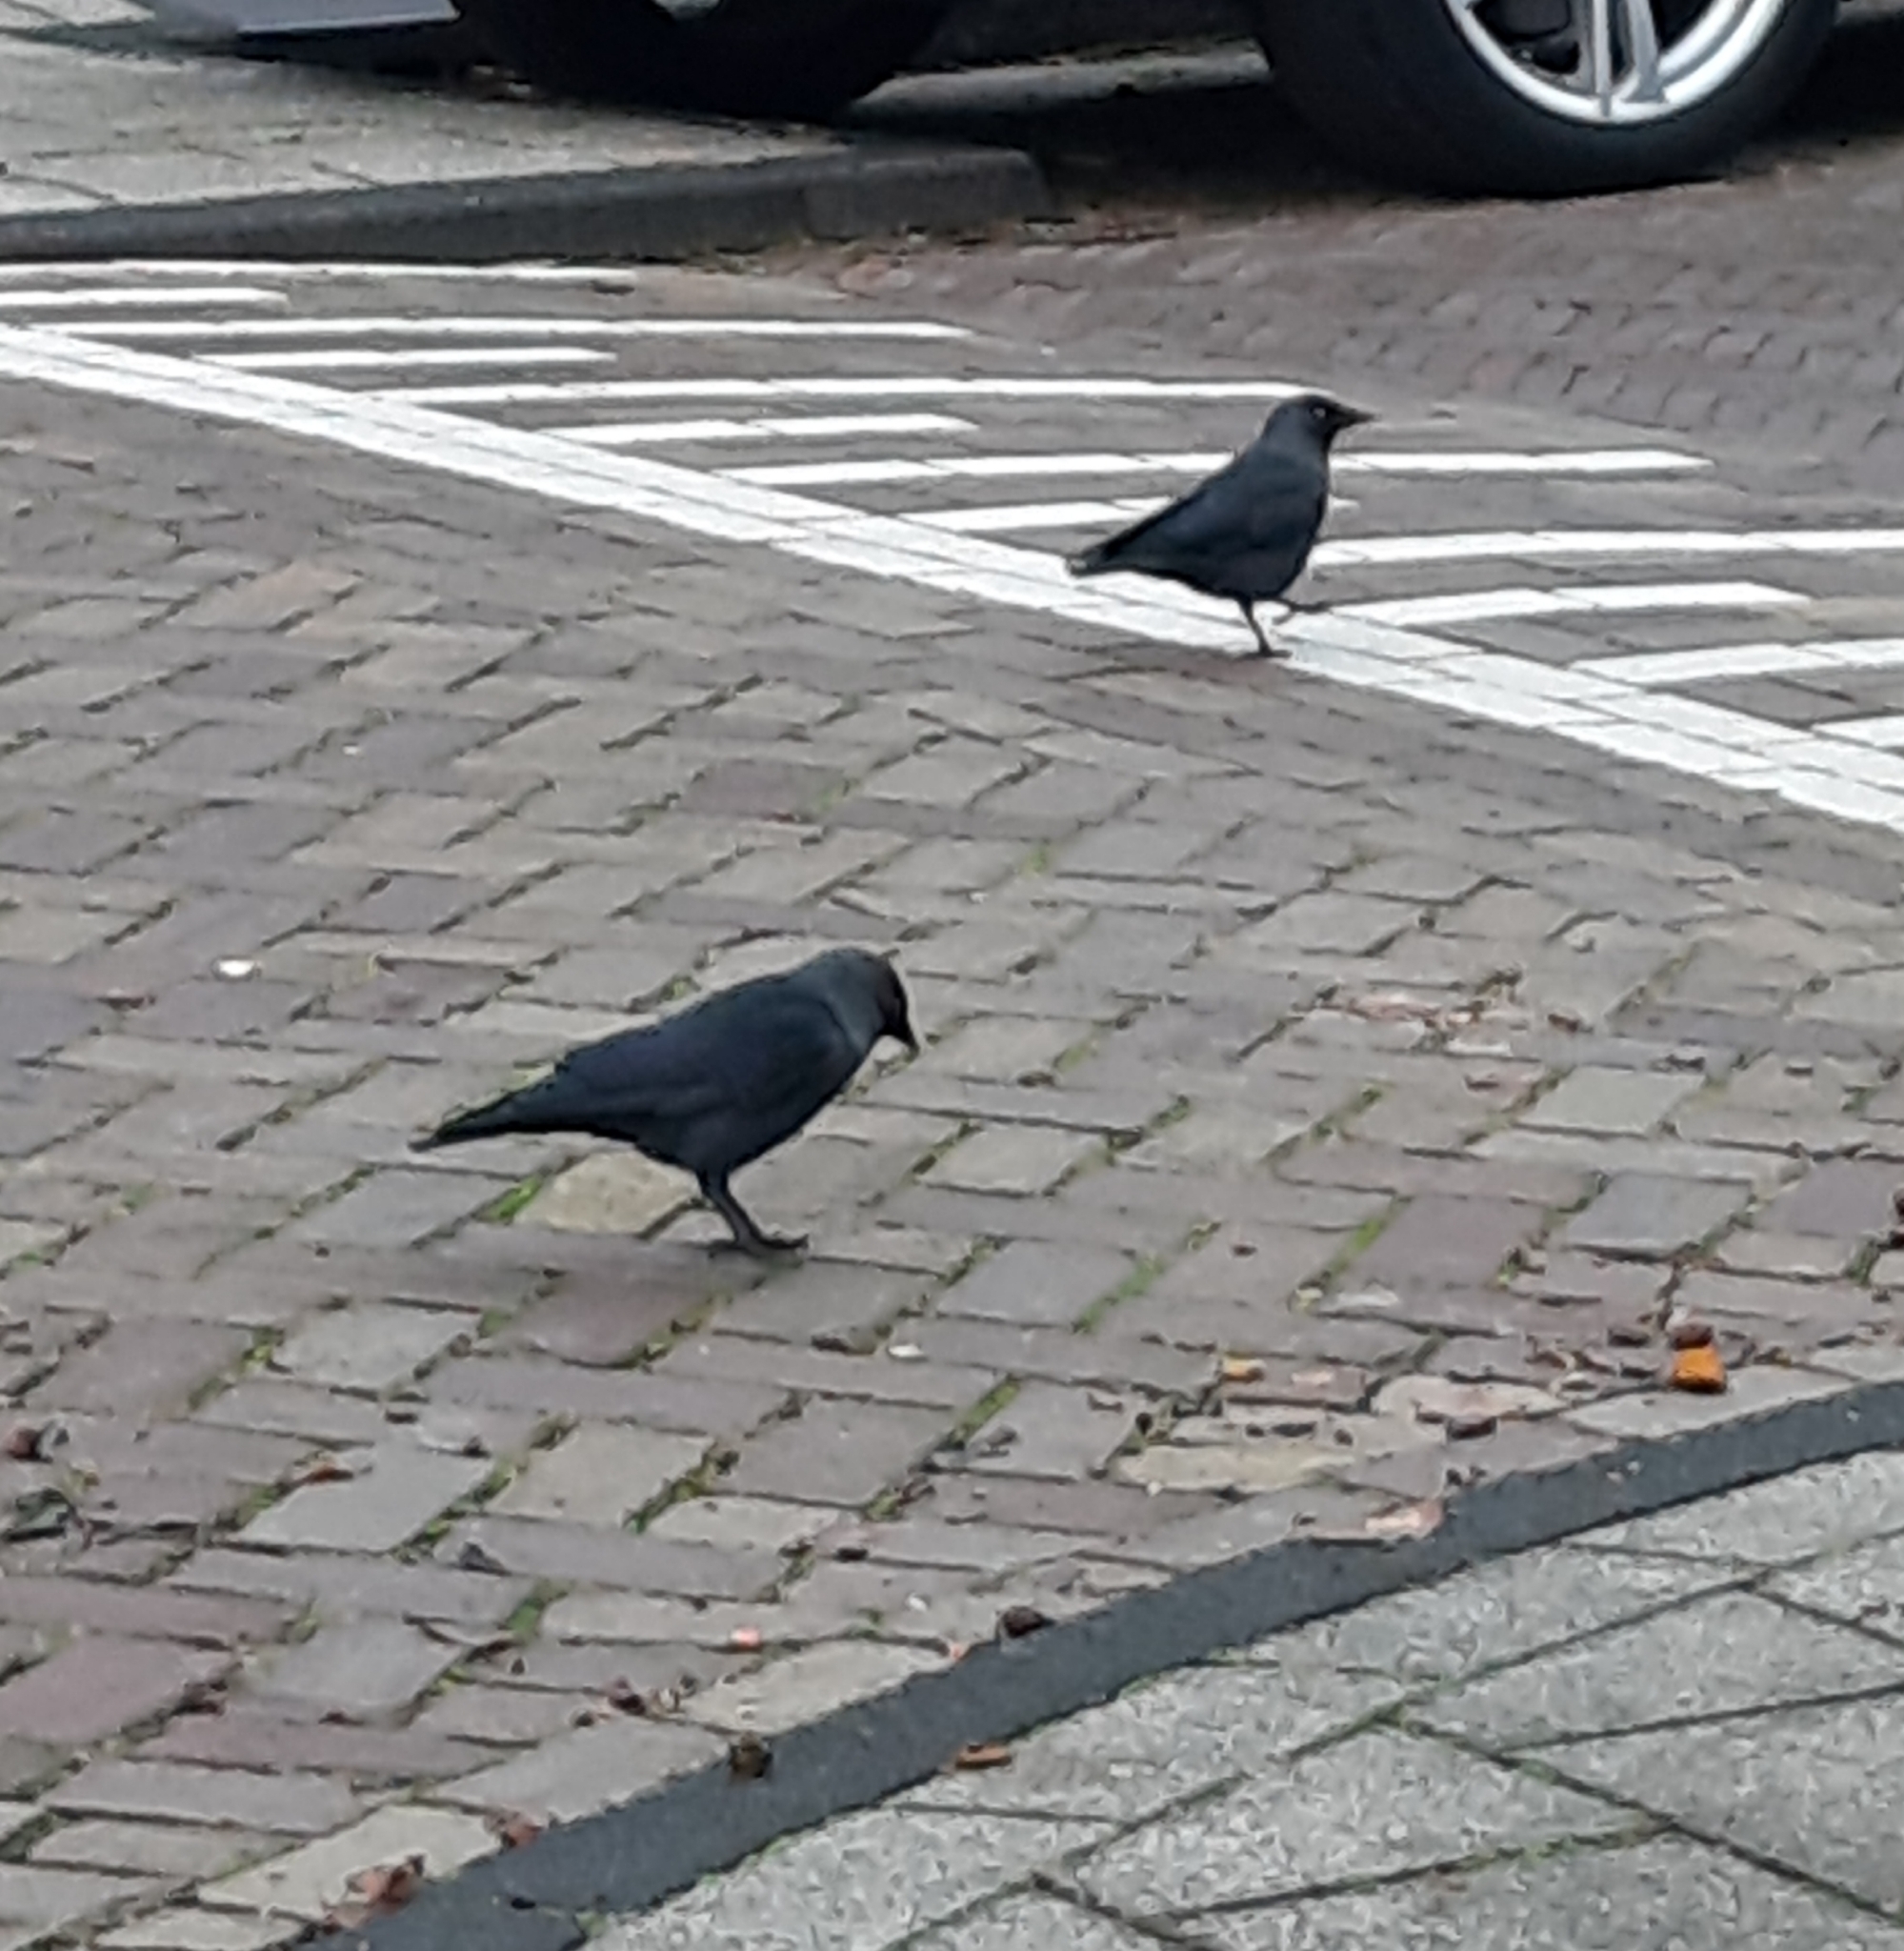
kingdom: Animalia
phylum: Chordata
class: Aves
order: Passeriformes
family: Corvidae
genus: Coloeus
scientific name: Coloeus monedula
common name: Western jackdaw
